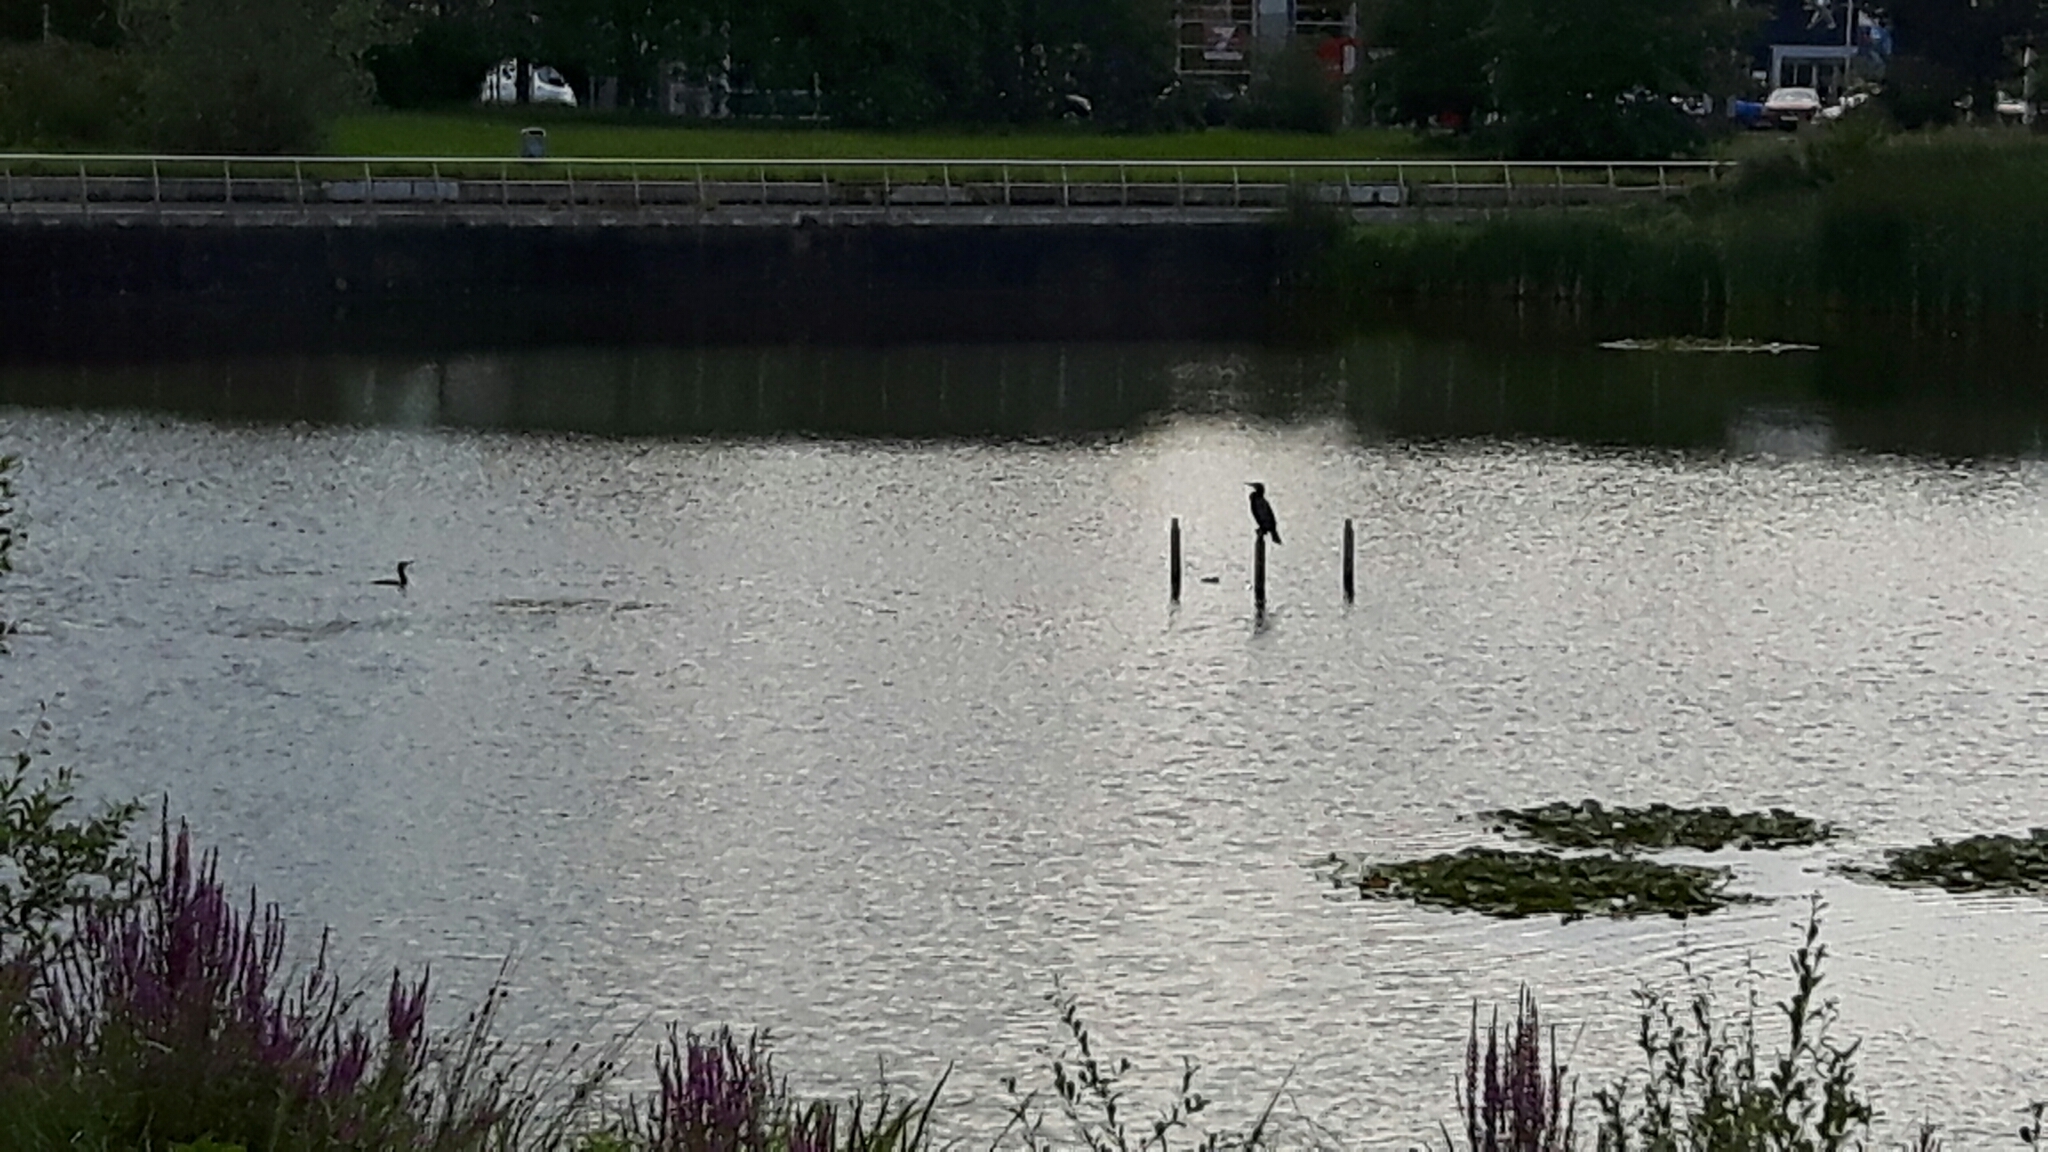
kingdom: Animalia
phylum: Chordata
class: Aves
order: Suliformes
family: Phalacrocoracidae
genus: Phalacrocorax
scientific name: Phalacrocorax carbo
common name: Great cormorant
